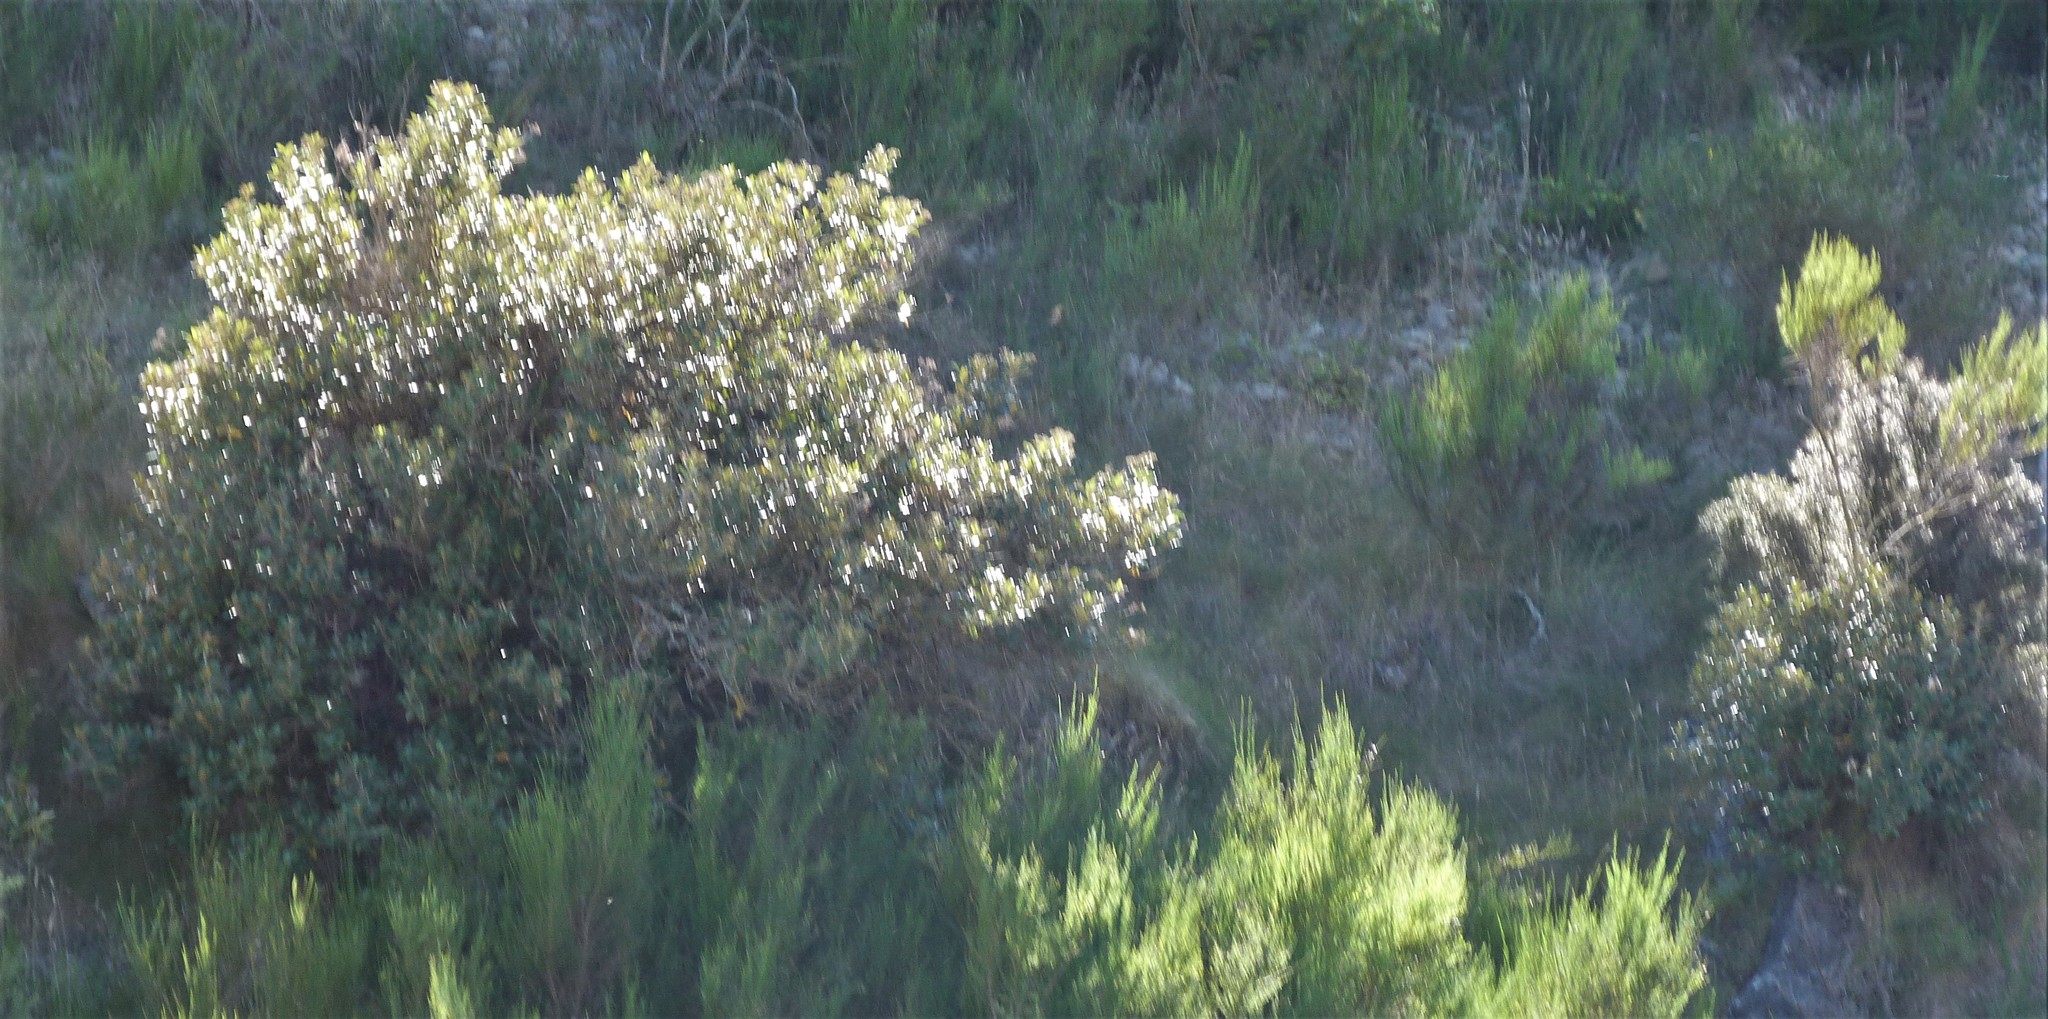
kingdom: Plantae
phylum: Tracheophyta
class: Magnoliopsida
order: Asterales
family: Asteraceae
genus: Olearia
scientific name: Olearia avicenniifolia
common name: Mangrove-leaf daisybush
